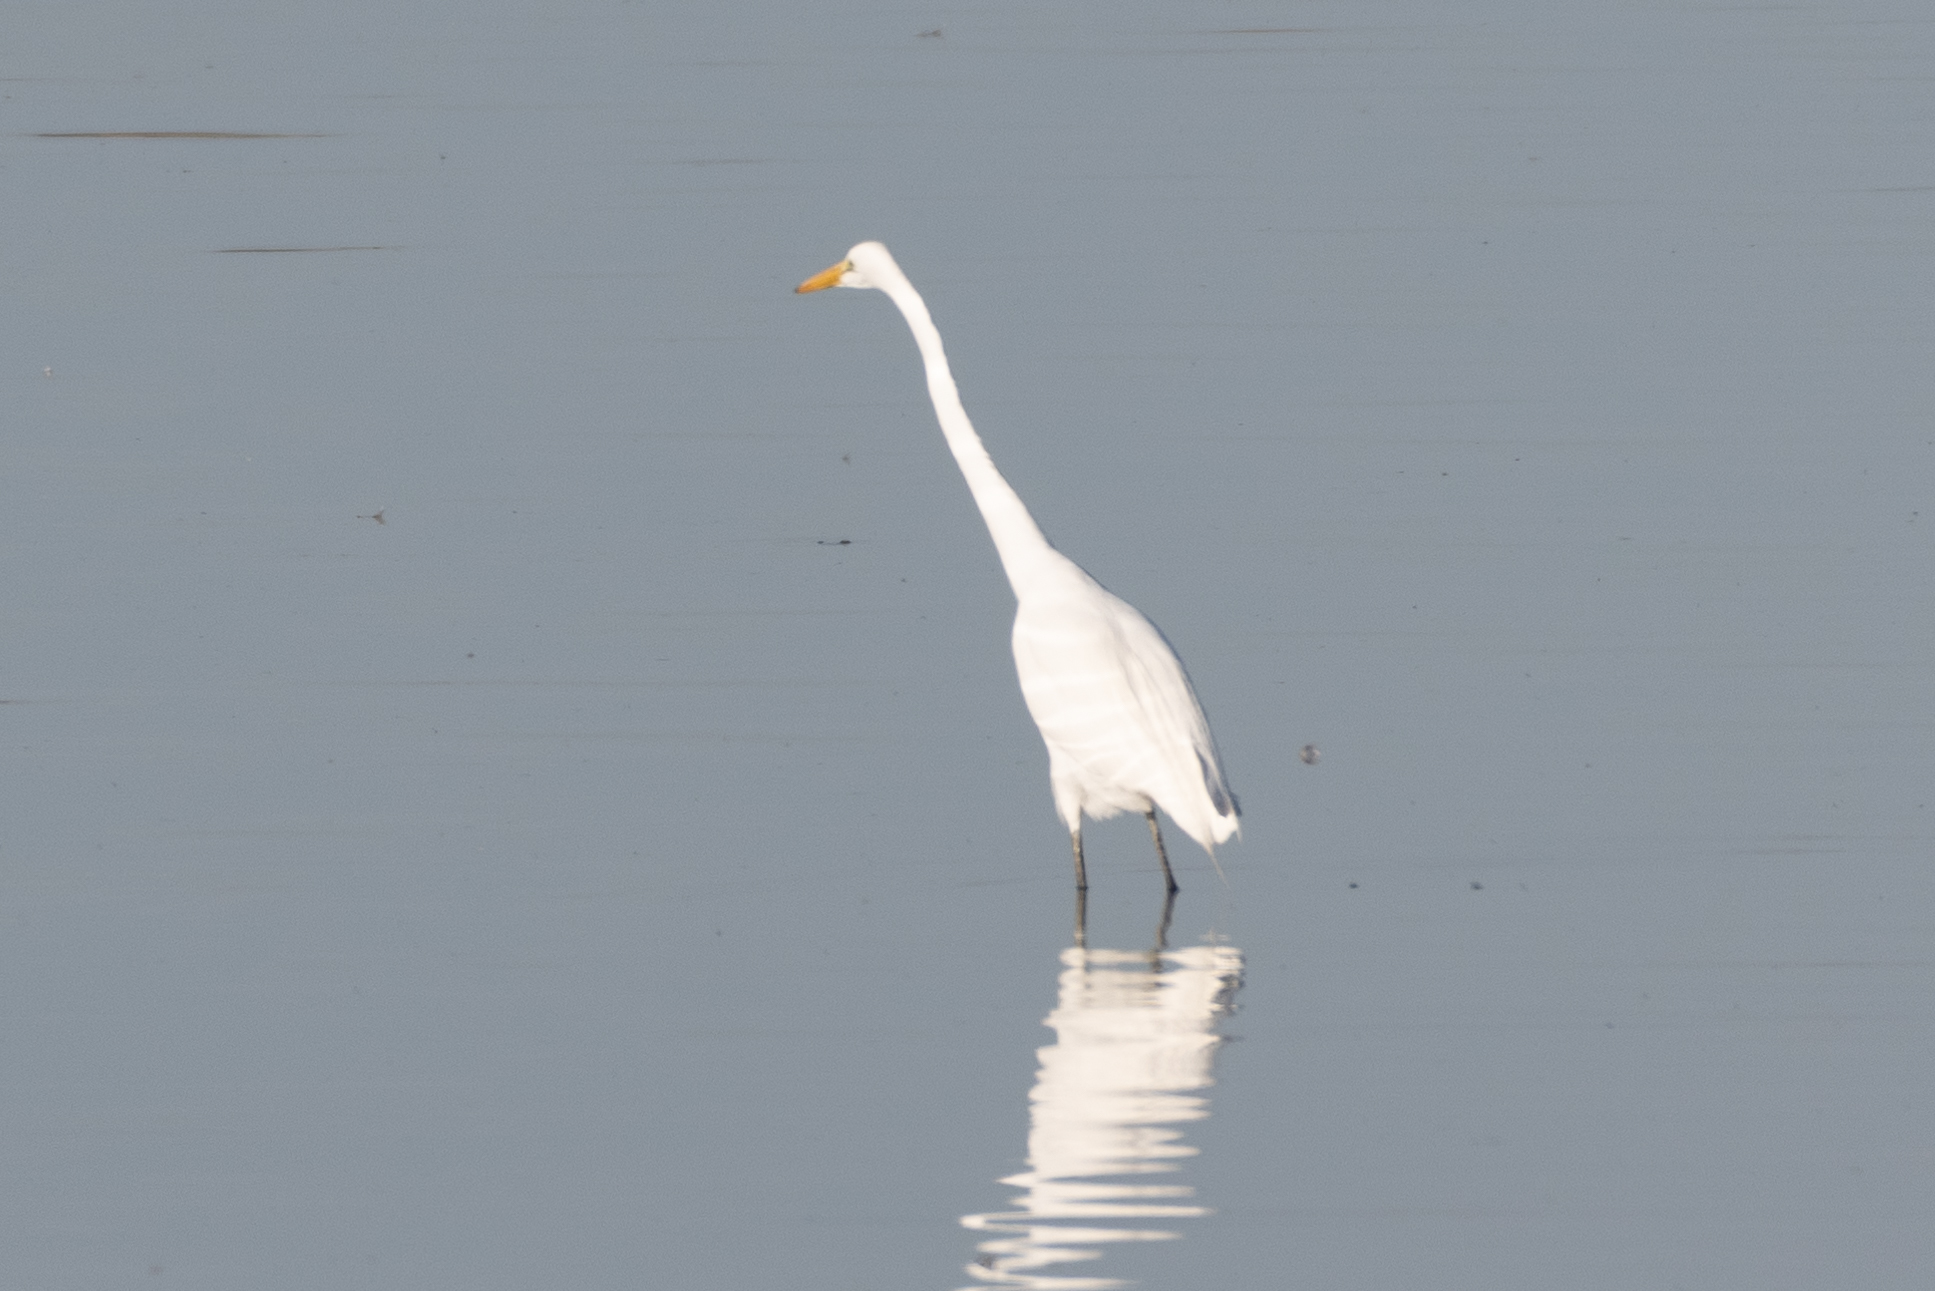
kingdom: Animalia
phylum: Chordata
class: Aves
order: Pelecaniformes
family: Ardeidae
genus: Ardea
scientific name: Ardea alba
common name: Great egret
